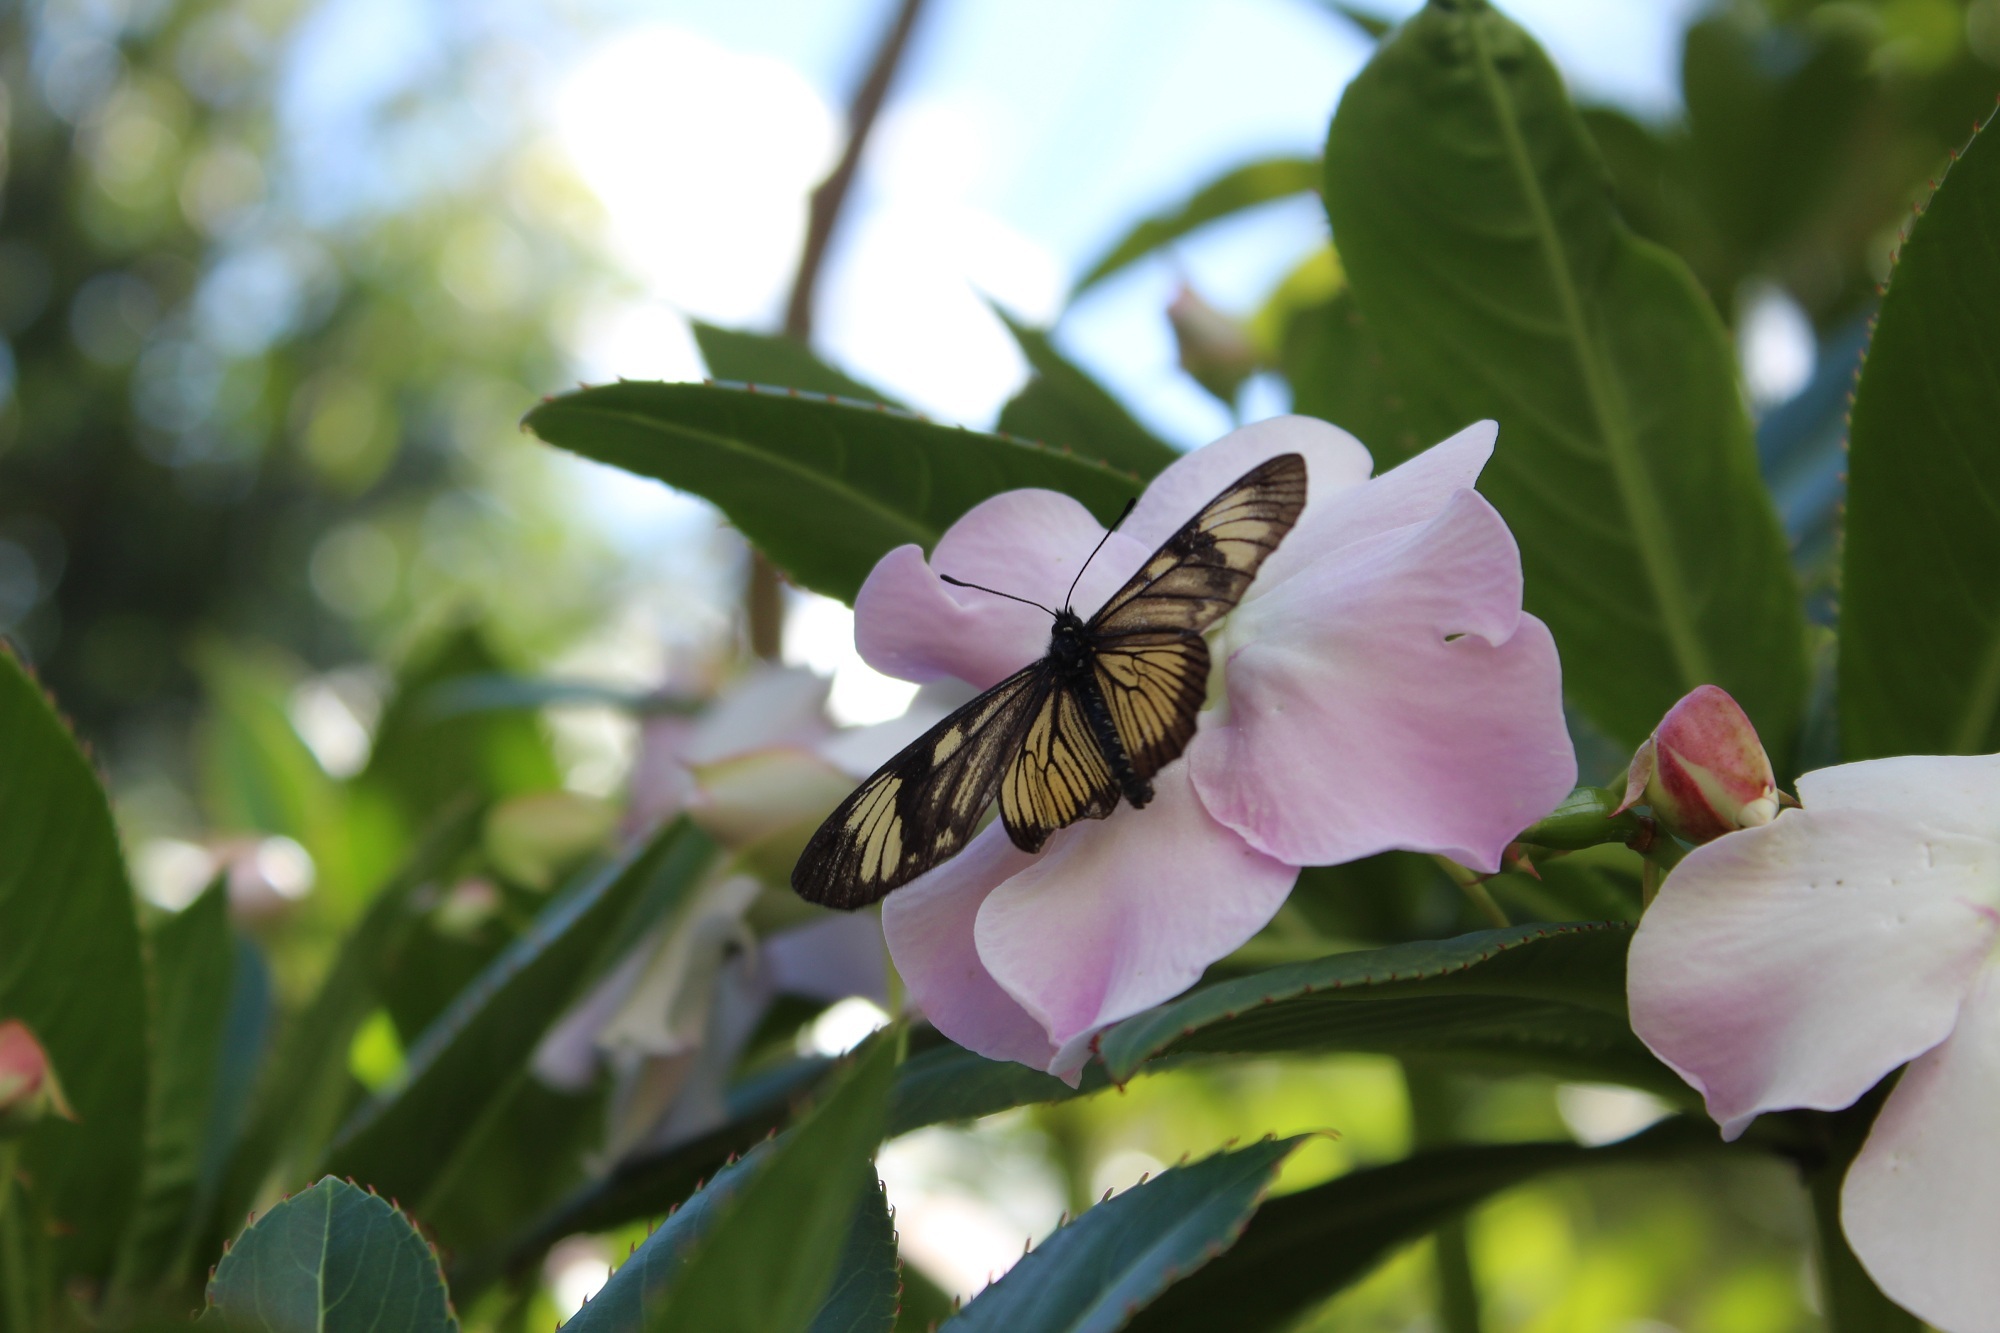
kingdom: Animalia
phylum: Arthropoda
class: Insecta
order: Lepidoptera
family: Nymphalidae
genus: Actinote
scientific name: Actinote anteas
